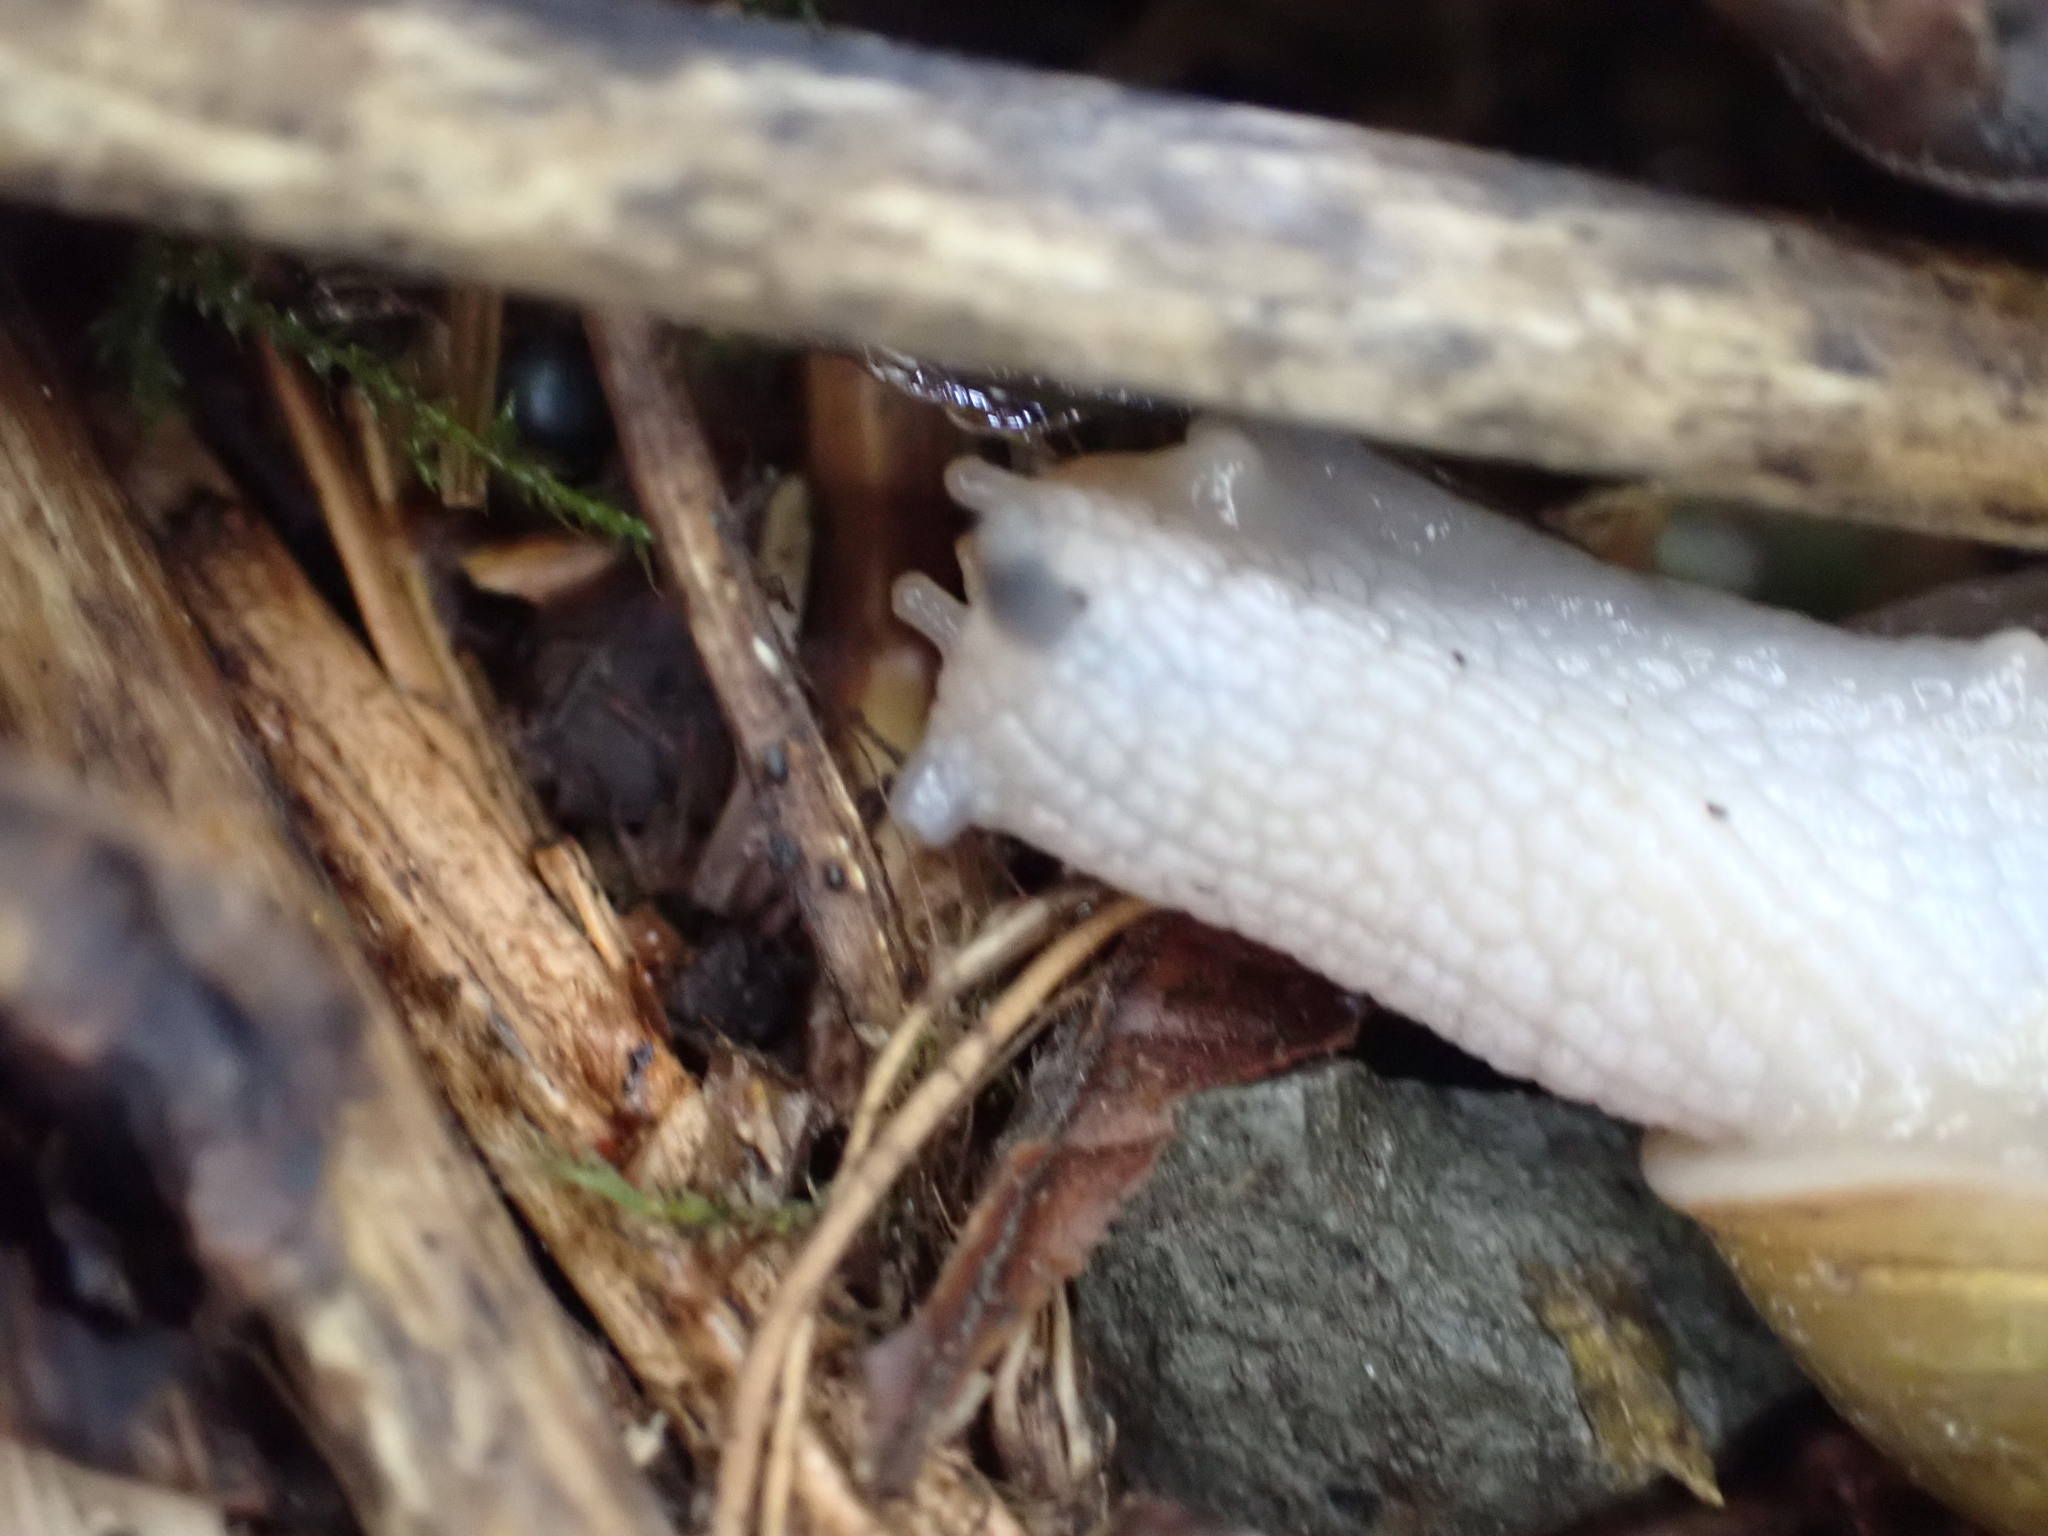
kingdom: Animalia
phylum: Mollusca
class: Gastropoda
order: Stylommatophora
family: Haplotrematidae
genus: Haplotrema
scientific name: Haplotrema vancouverense
